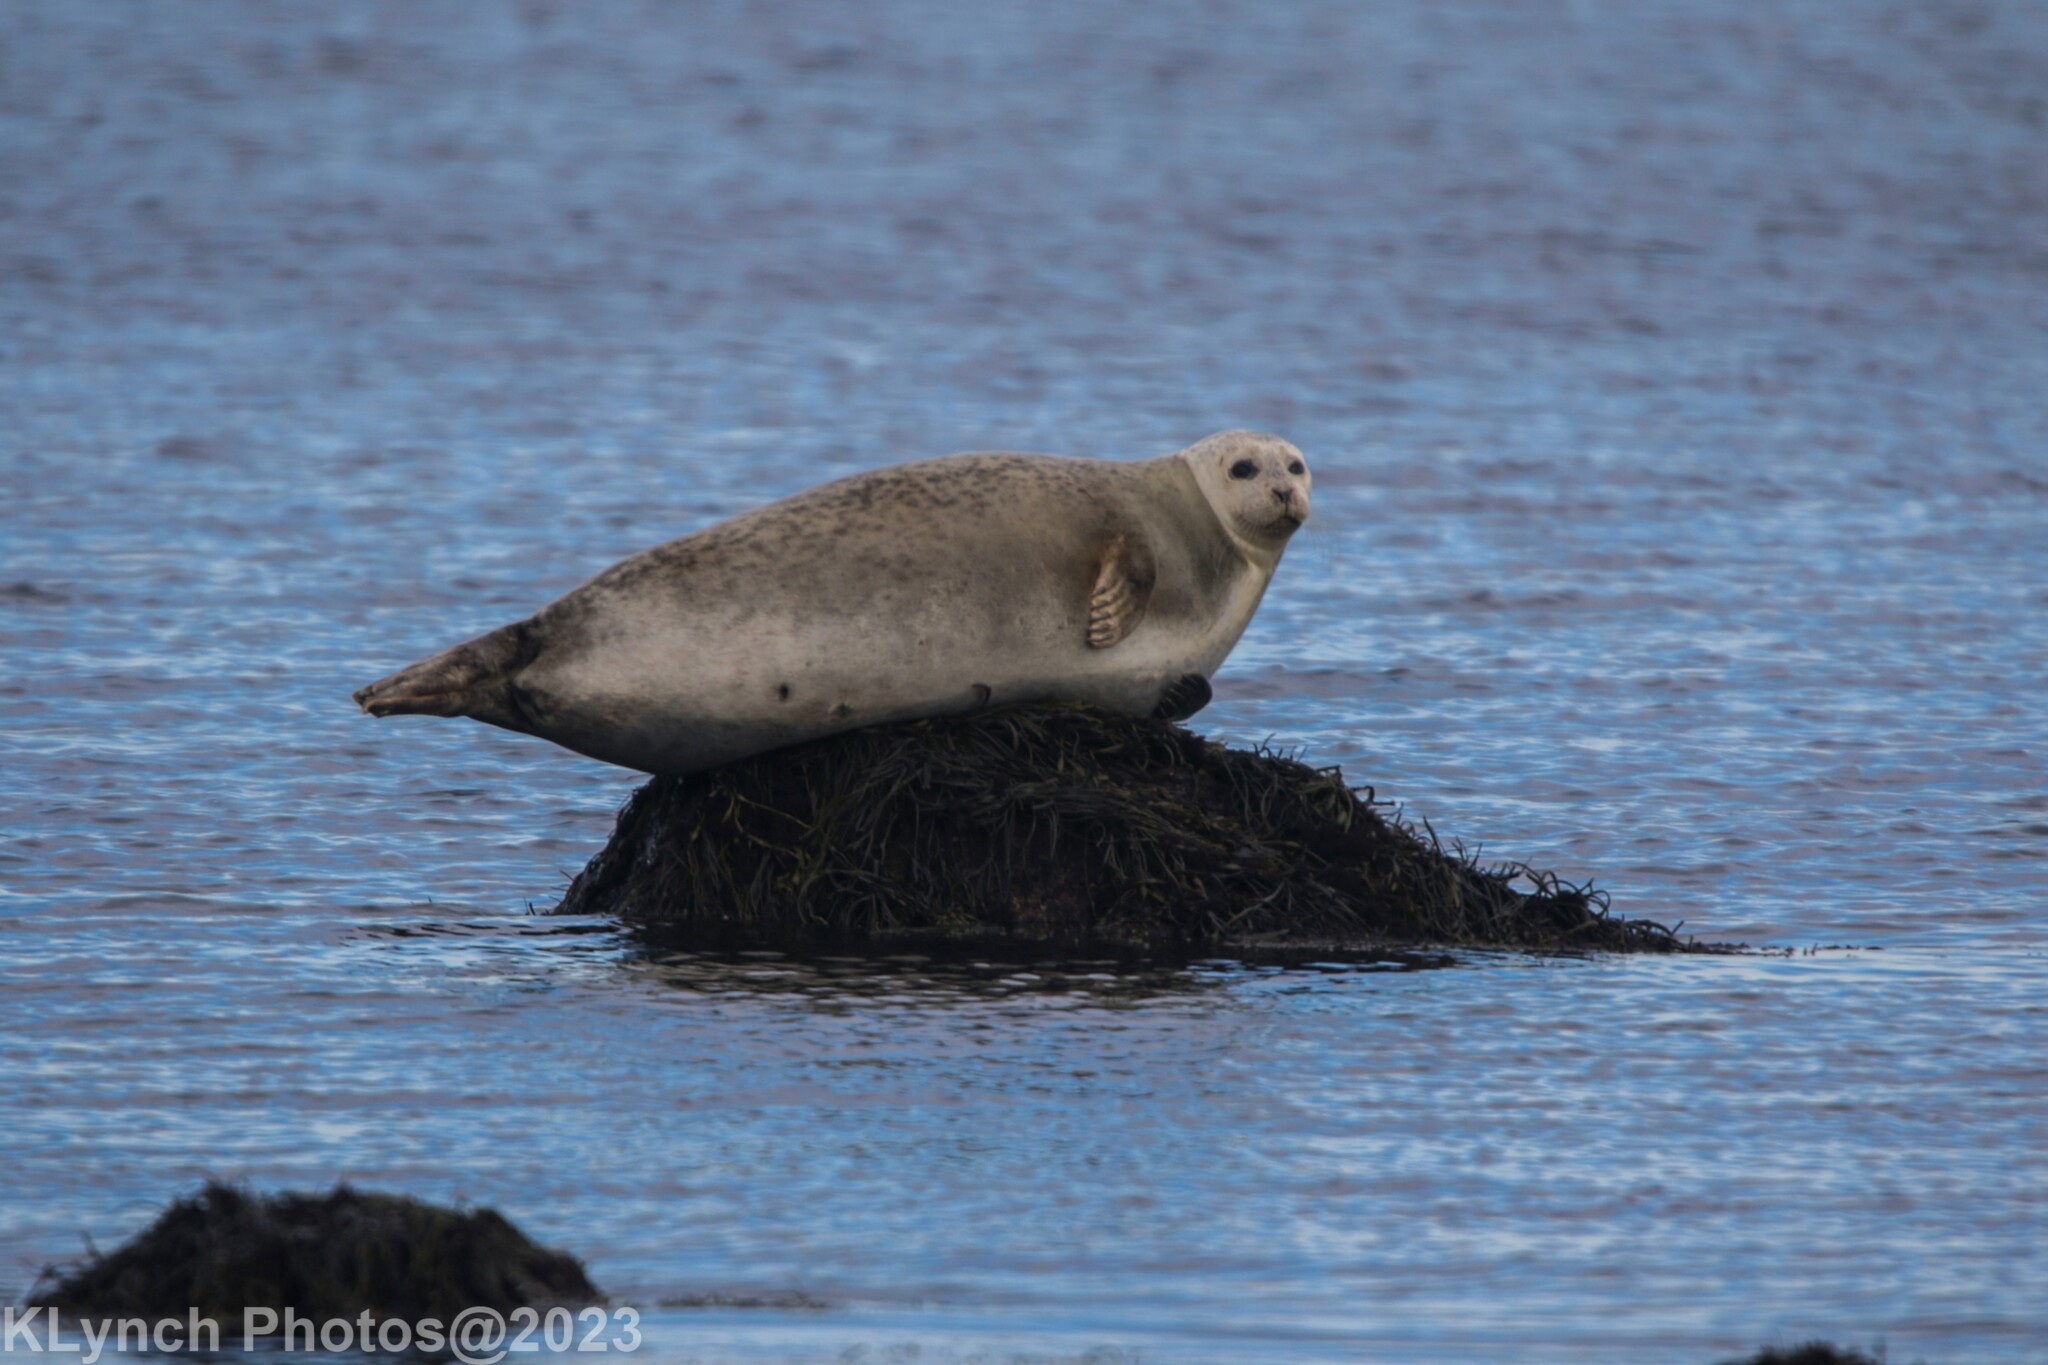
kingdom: Animalia
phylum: Chordata
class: Mammalia
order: Carnivora
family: Phocidae
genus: Phoca
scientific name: Phoca vitulina
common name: Harbor seal
